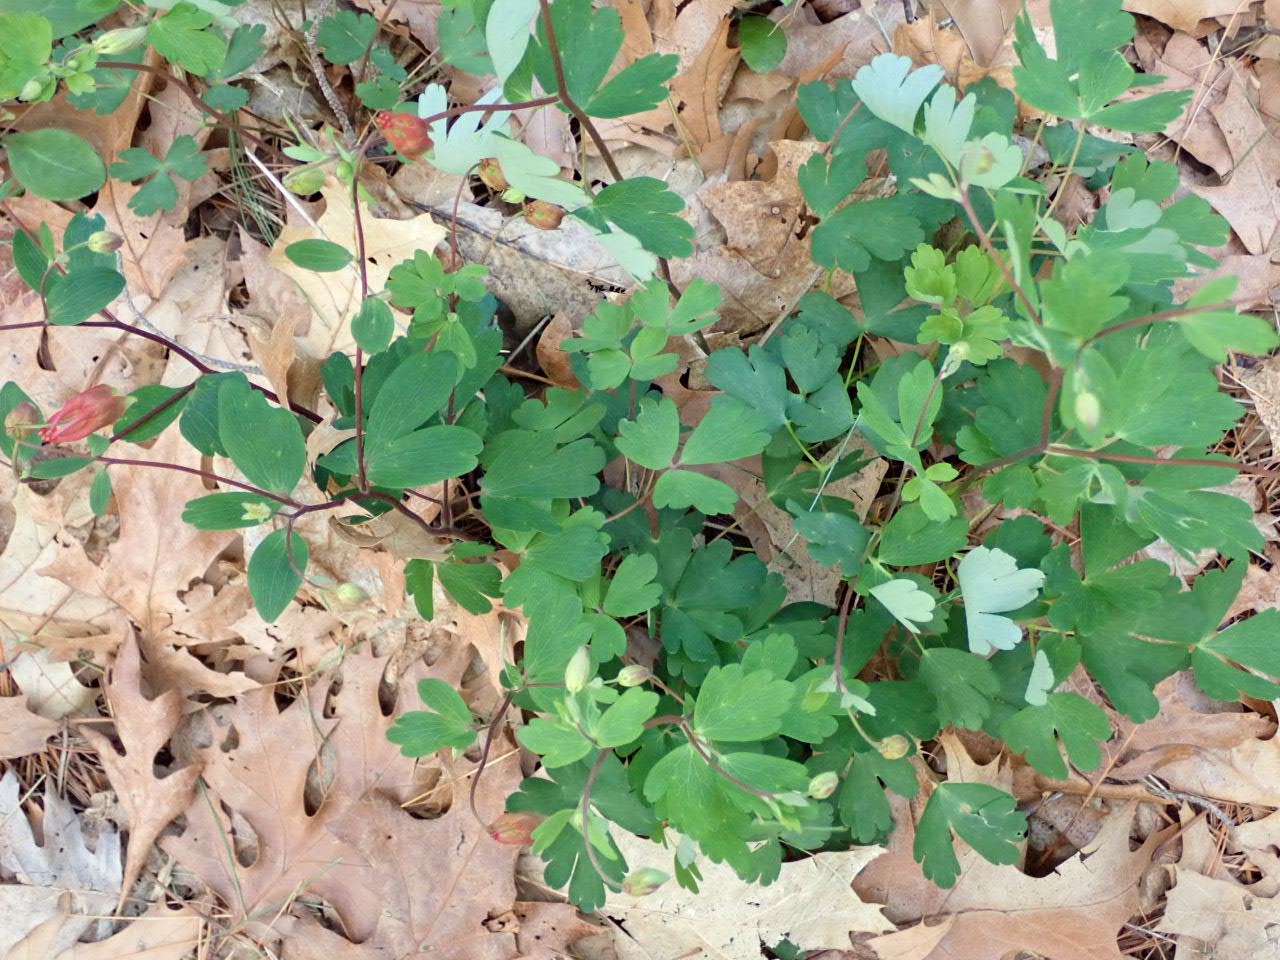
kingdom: Plantae
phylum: Tracheophyta
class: Magnoliopsida
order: Ranunculales
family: Ranunculaceae
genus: Aquilegia
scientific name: Aquilegia canadensis
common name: American columbine
